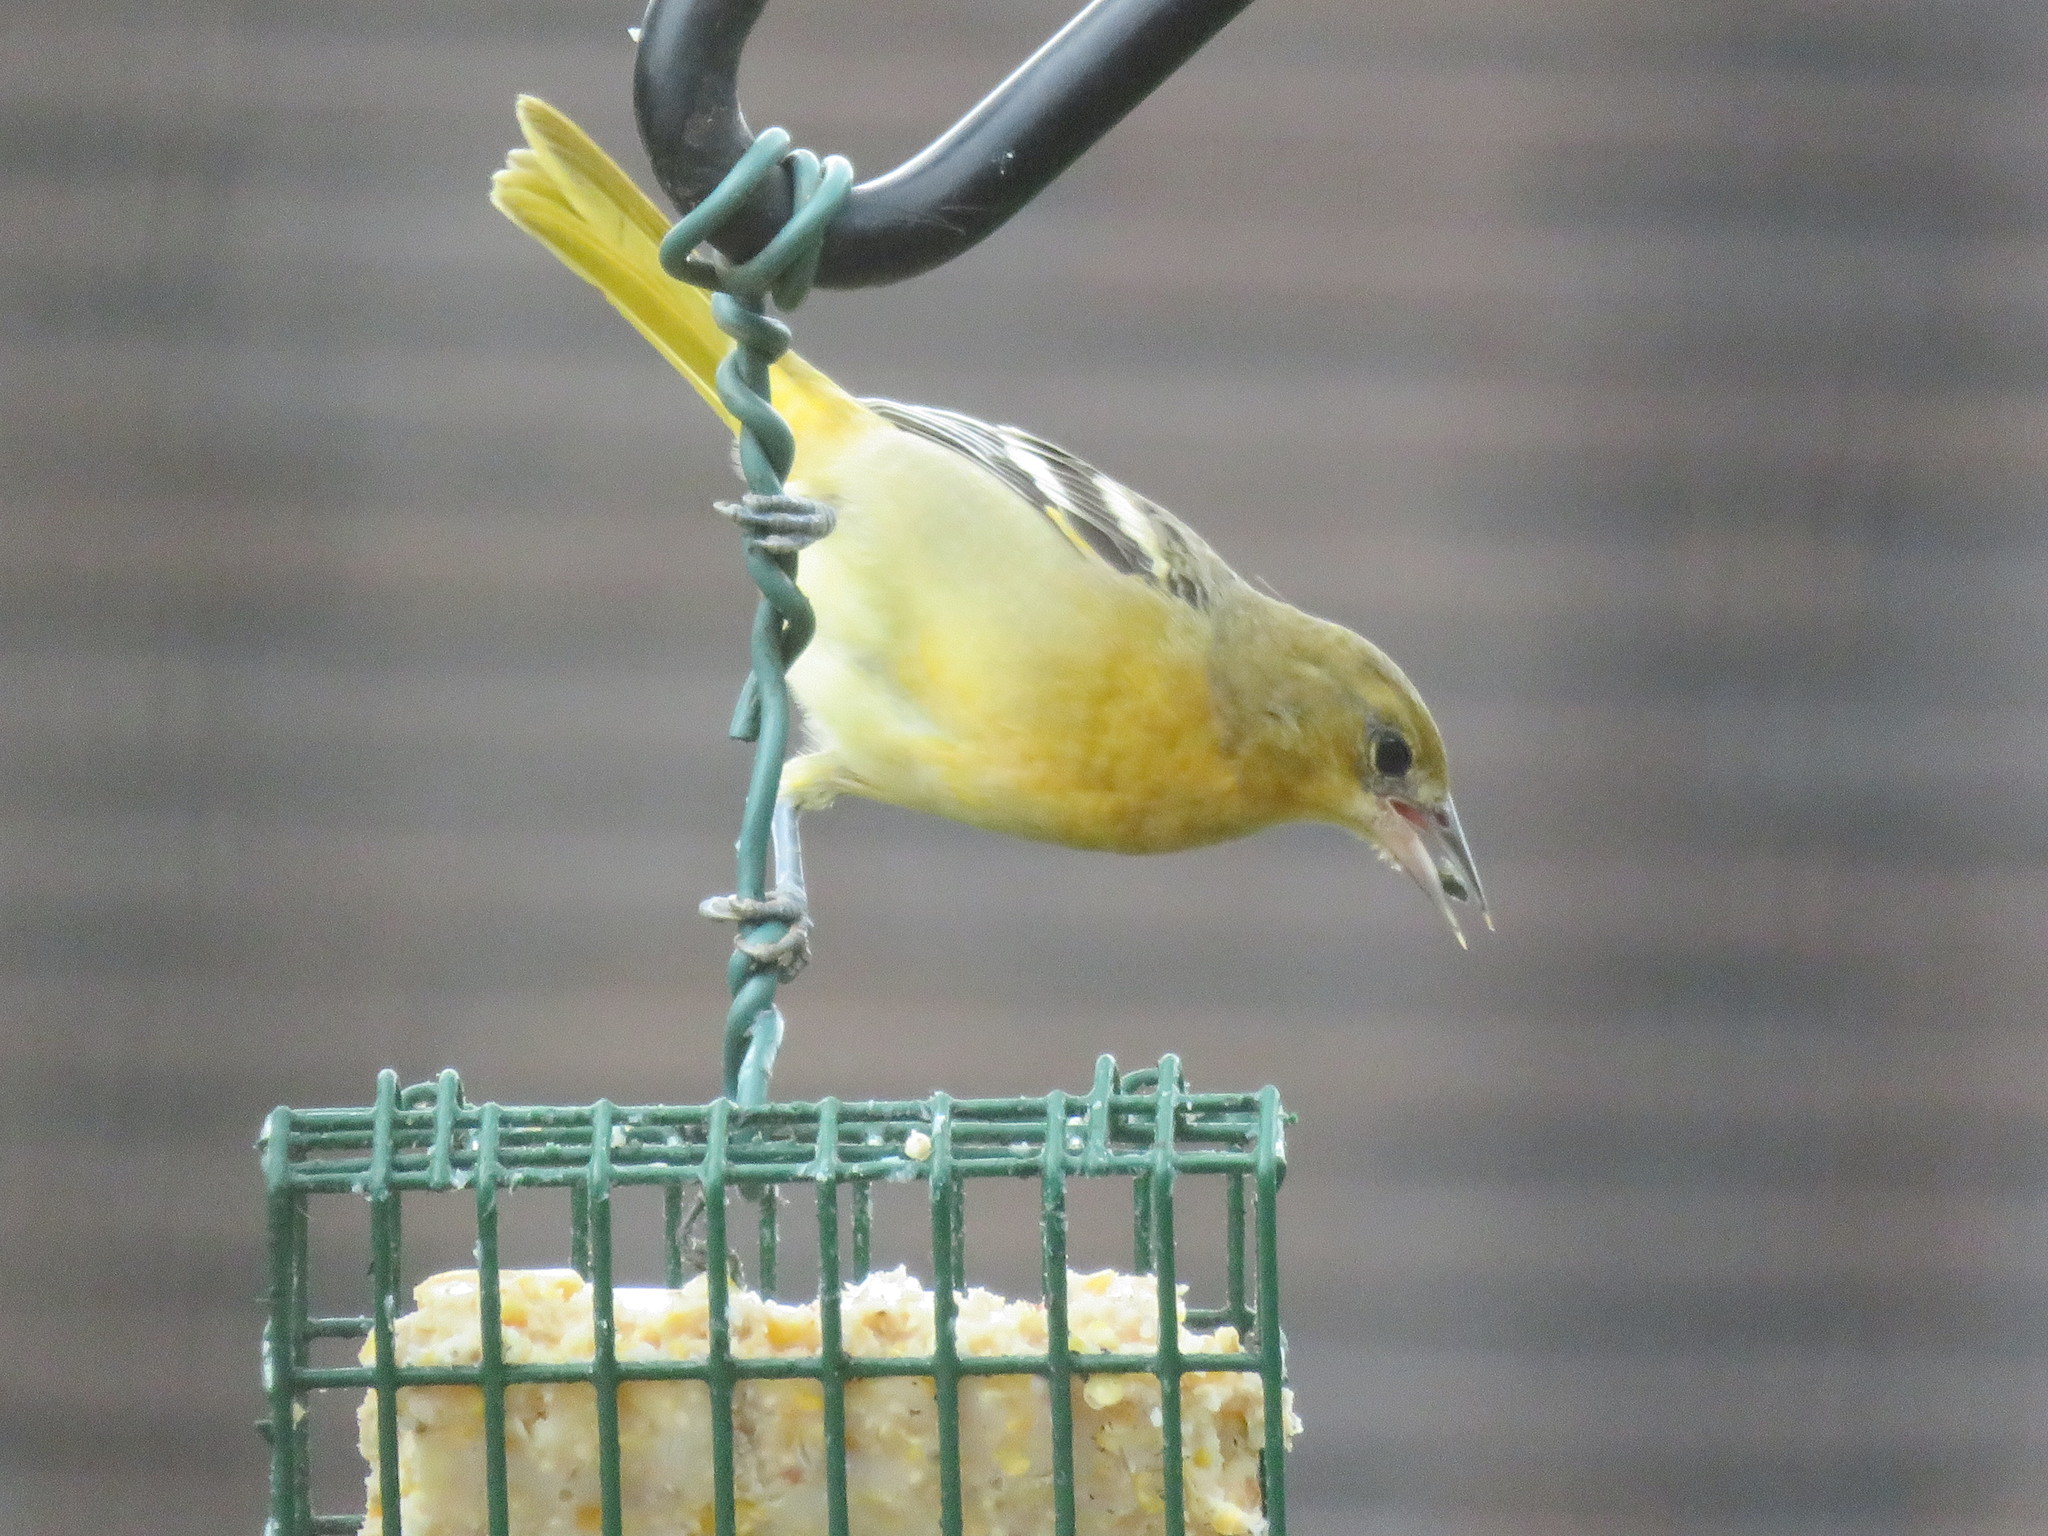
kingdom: Animalia
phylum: Chordata
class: Aves
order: Passeriformes
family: Icteridae
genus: Icterus
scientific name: Icterus galbula
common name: Baltimore oriole
